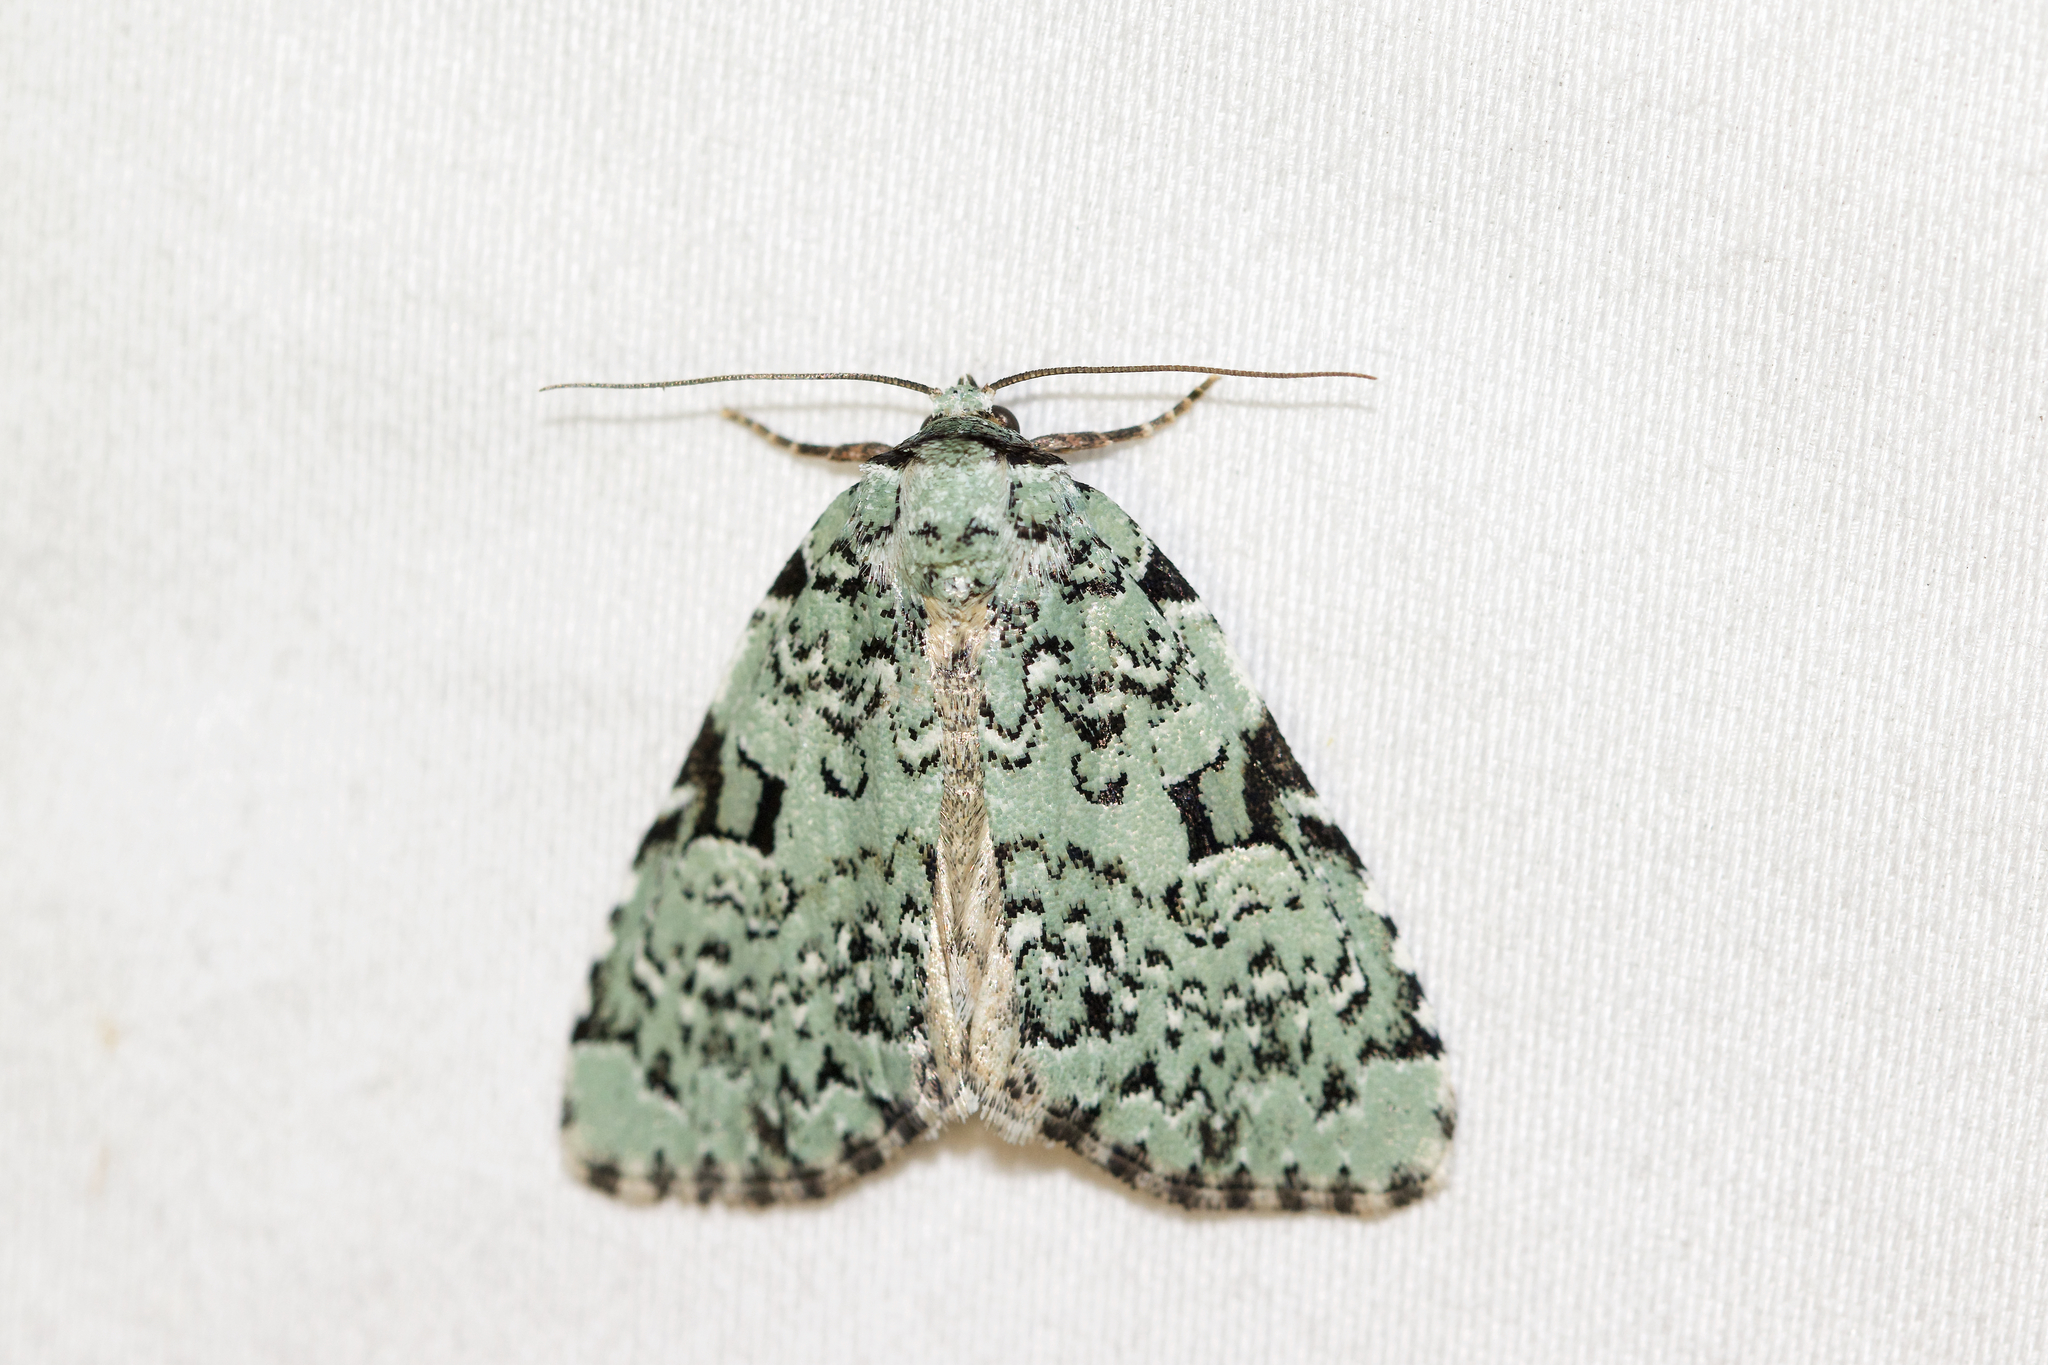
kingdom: Animalia
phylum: Arthropoda
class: Insecta
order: Lepidoptera
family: Noctuidae
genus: Leuconycta
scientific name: Leuconycta diphteroides
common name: Green leuconycta moth
